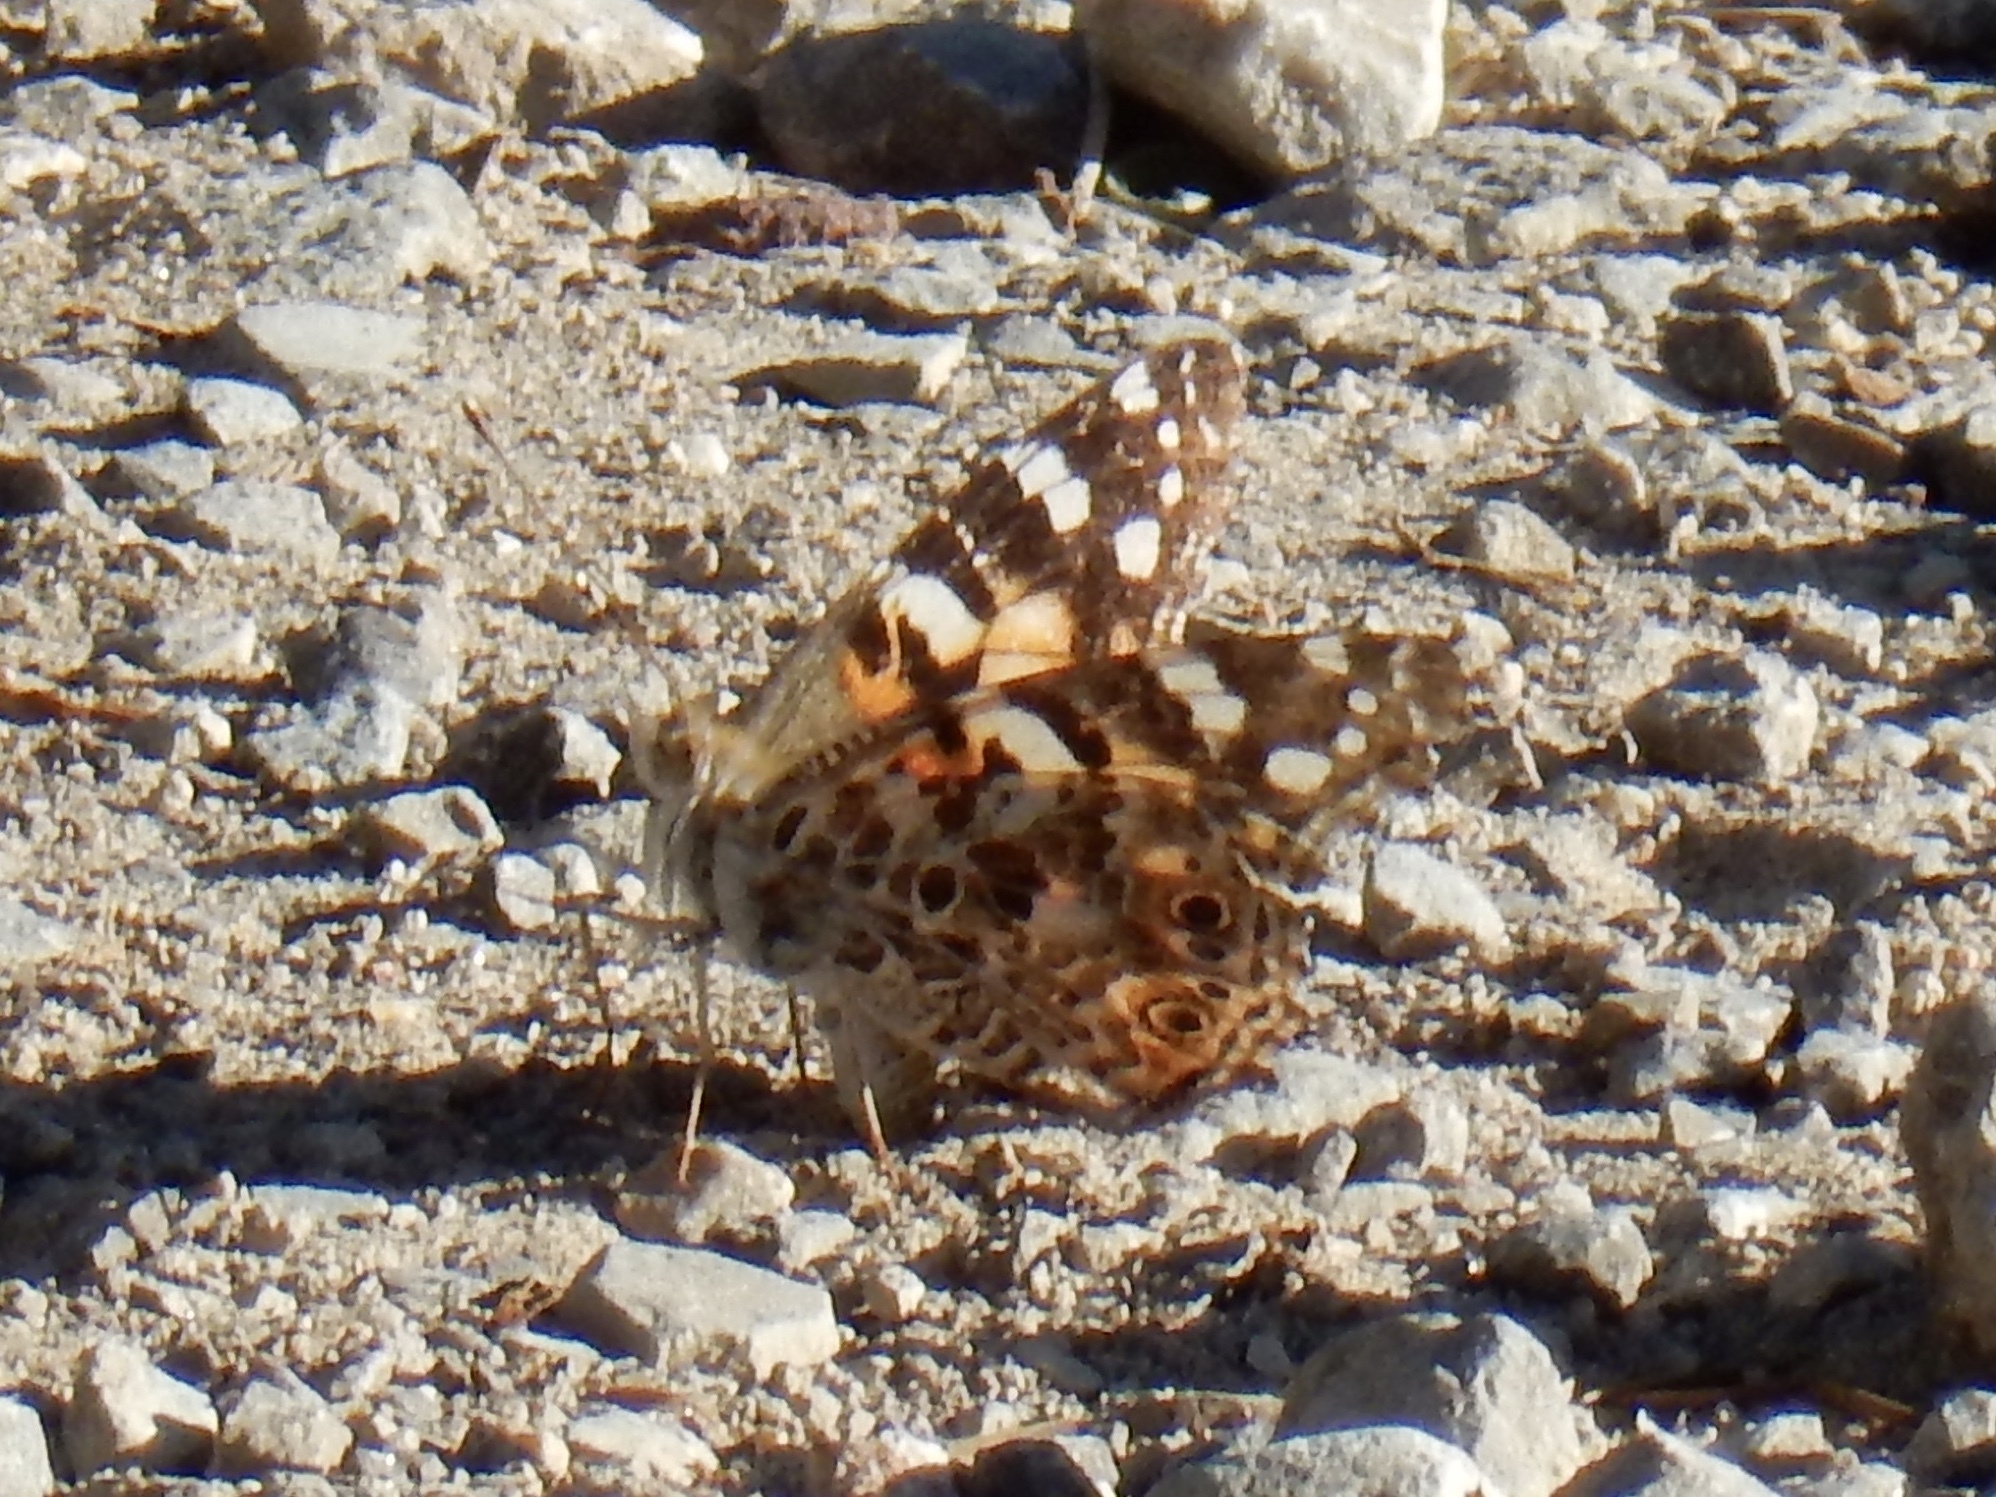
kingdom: Animalia
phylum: Arthropoda
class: Insecta
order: Lepidoptera
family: Nymphalidae
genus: Vanessa
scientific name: Vanessa cardui
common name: Painted lady
